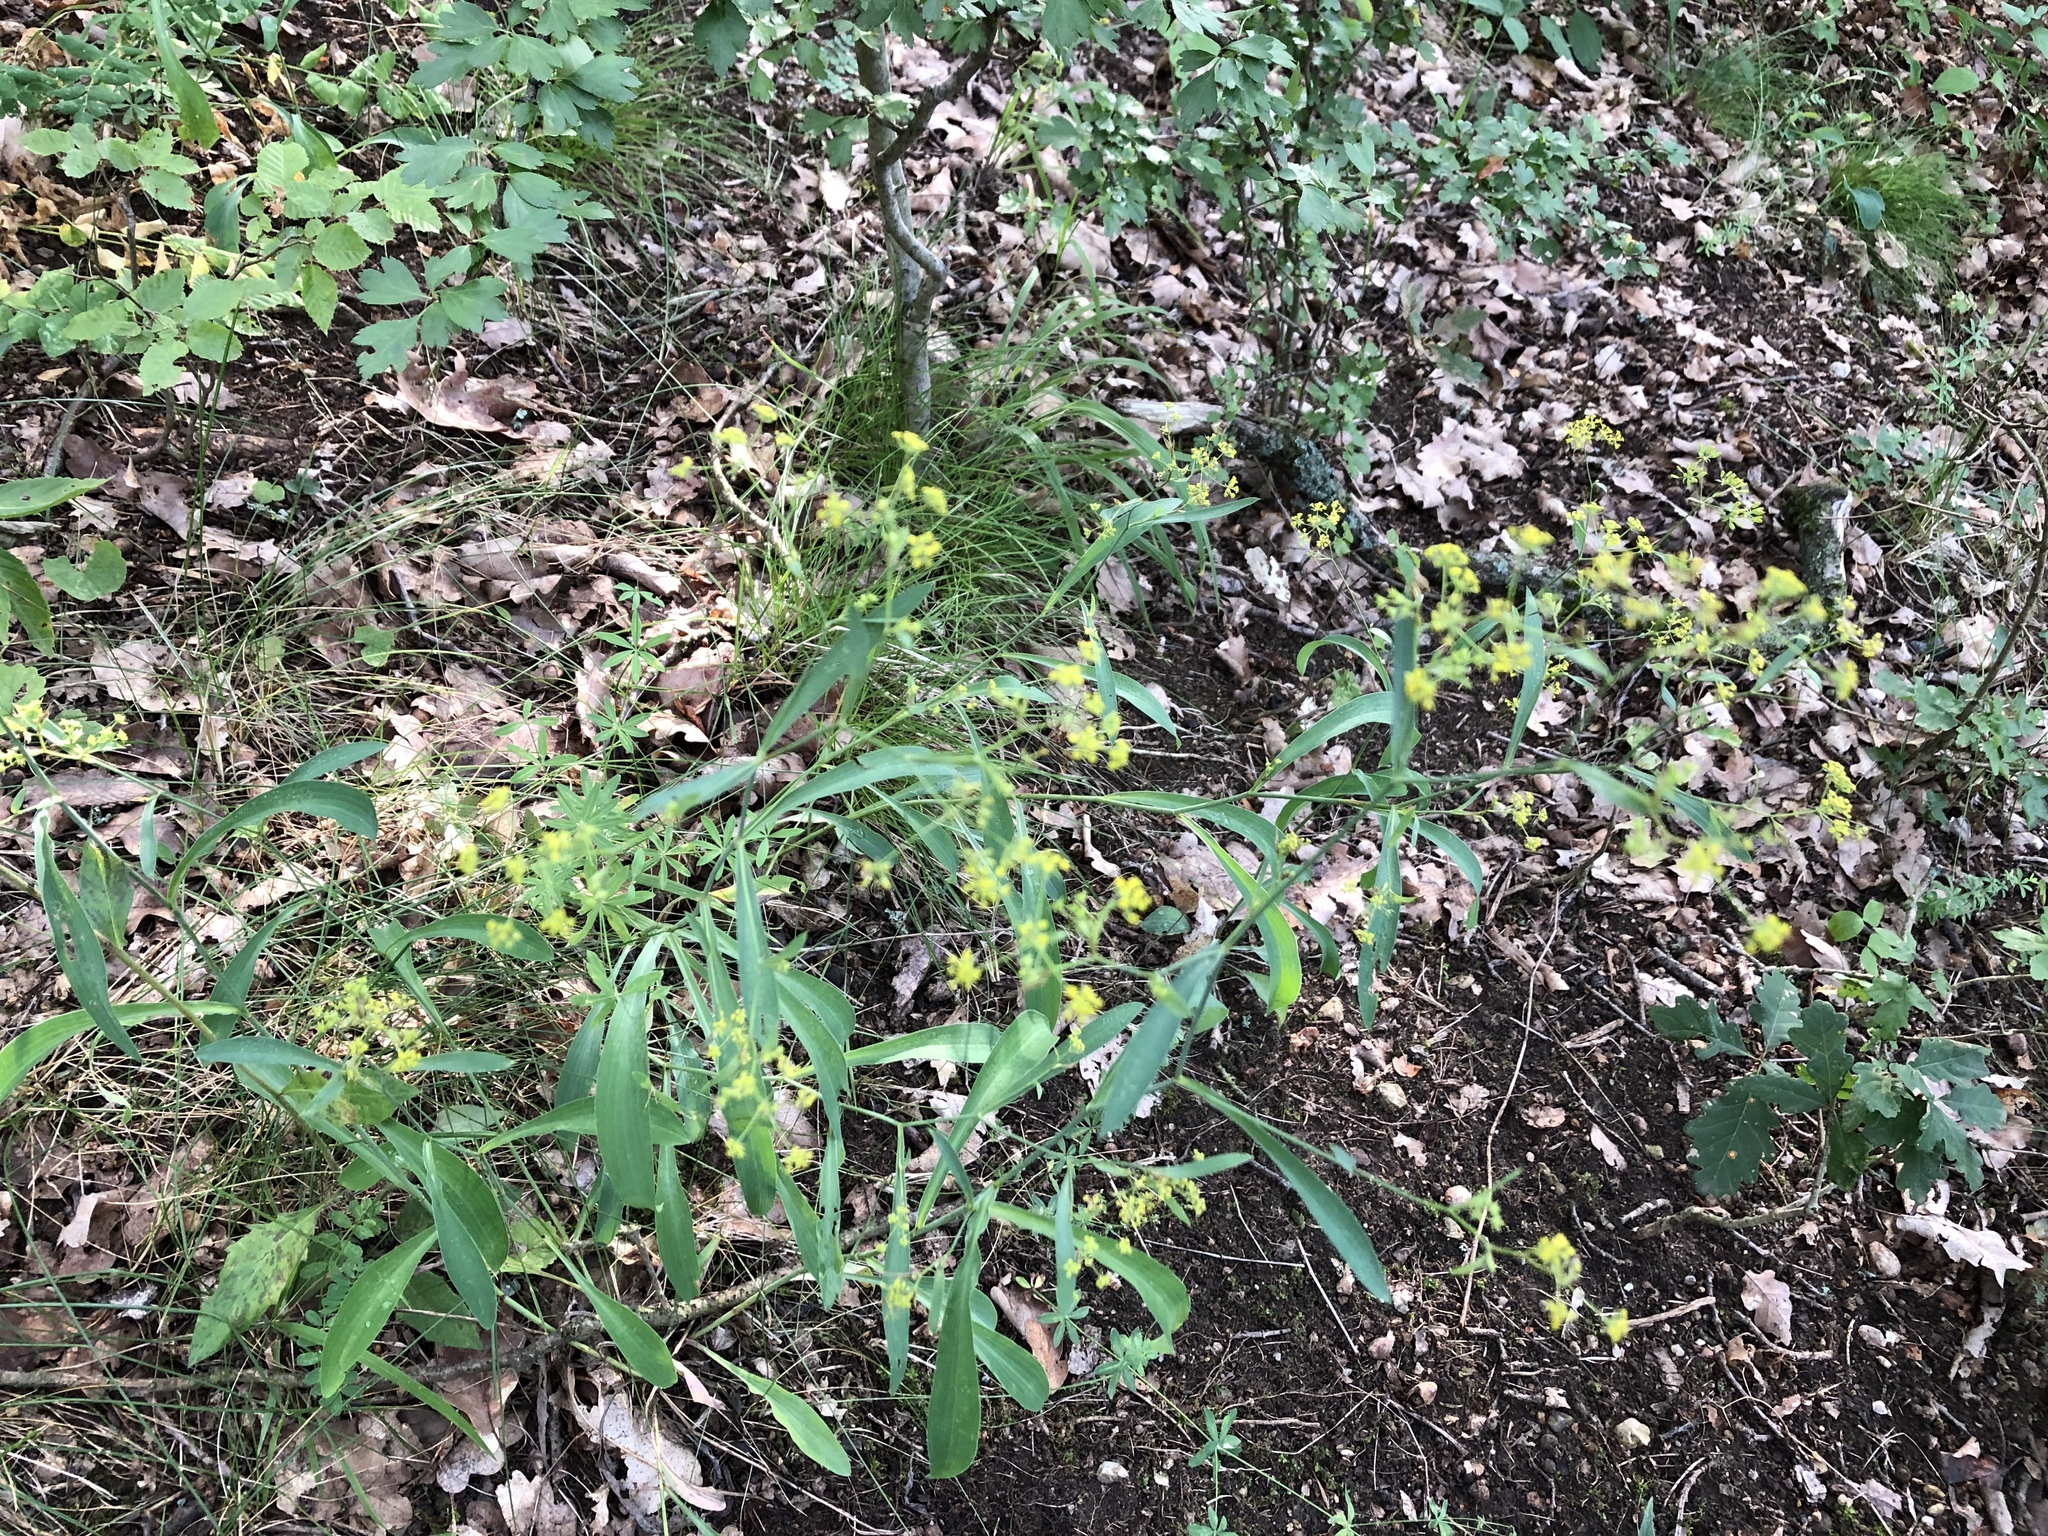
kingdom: Plantae
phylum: Tracheophyta
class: Magnoliopsida
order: Apiales
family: Apiaceae
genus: Bupleurum
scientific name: Bupleurum falcatum
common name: Sickle-leaved hare's-ear
